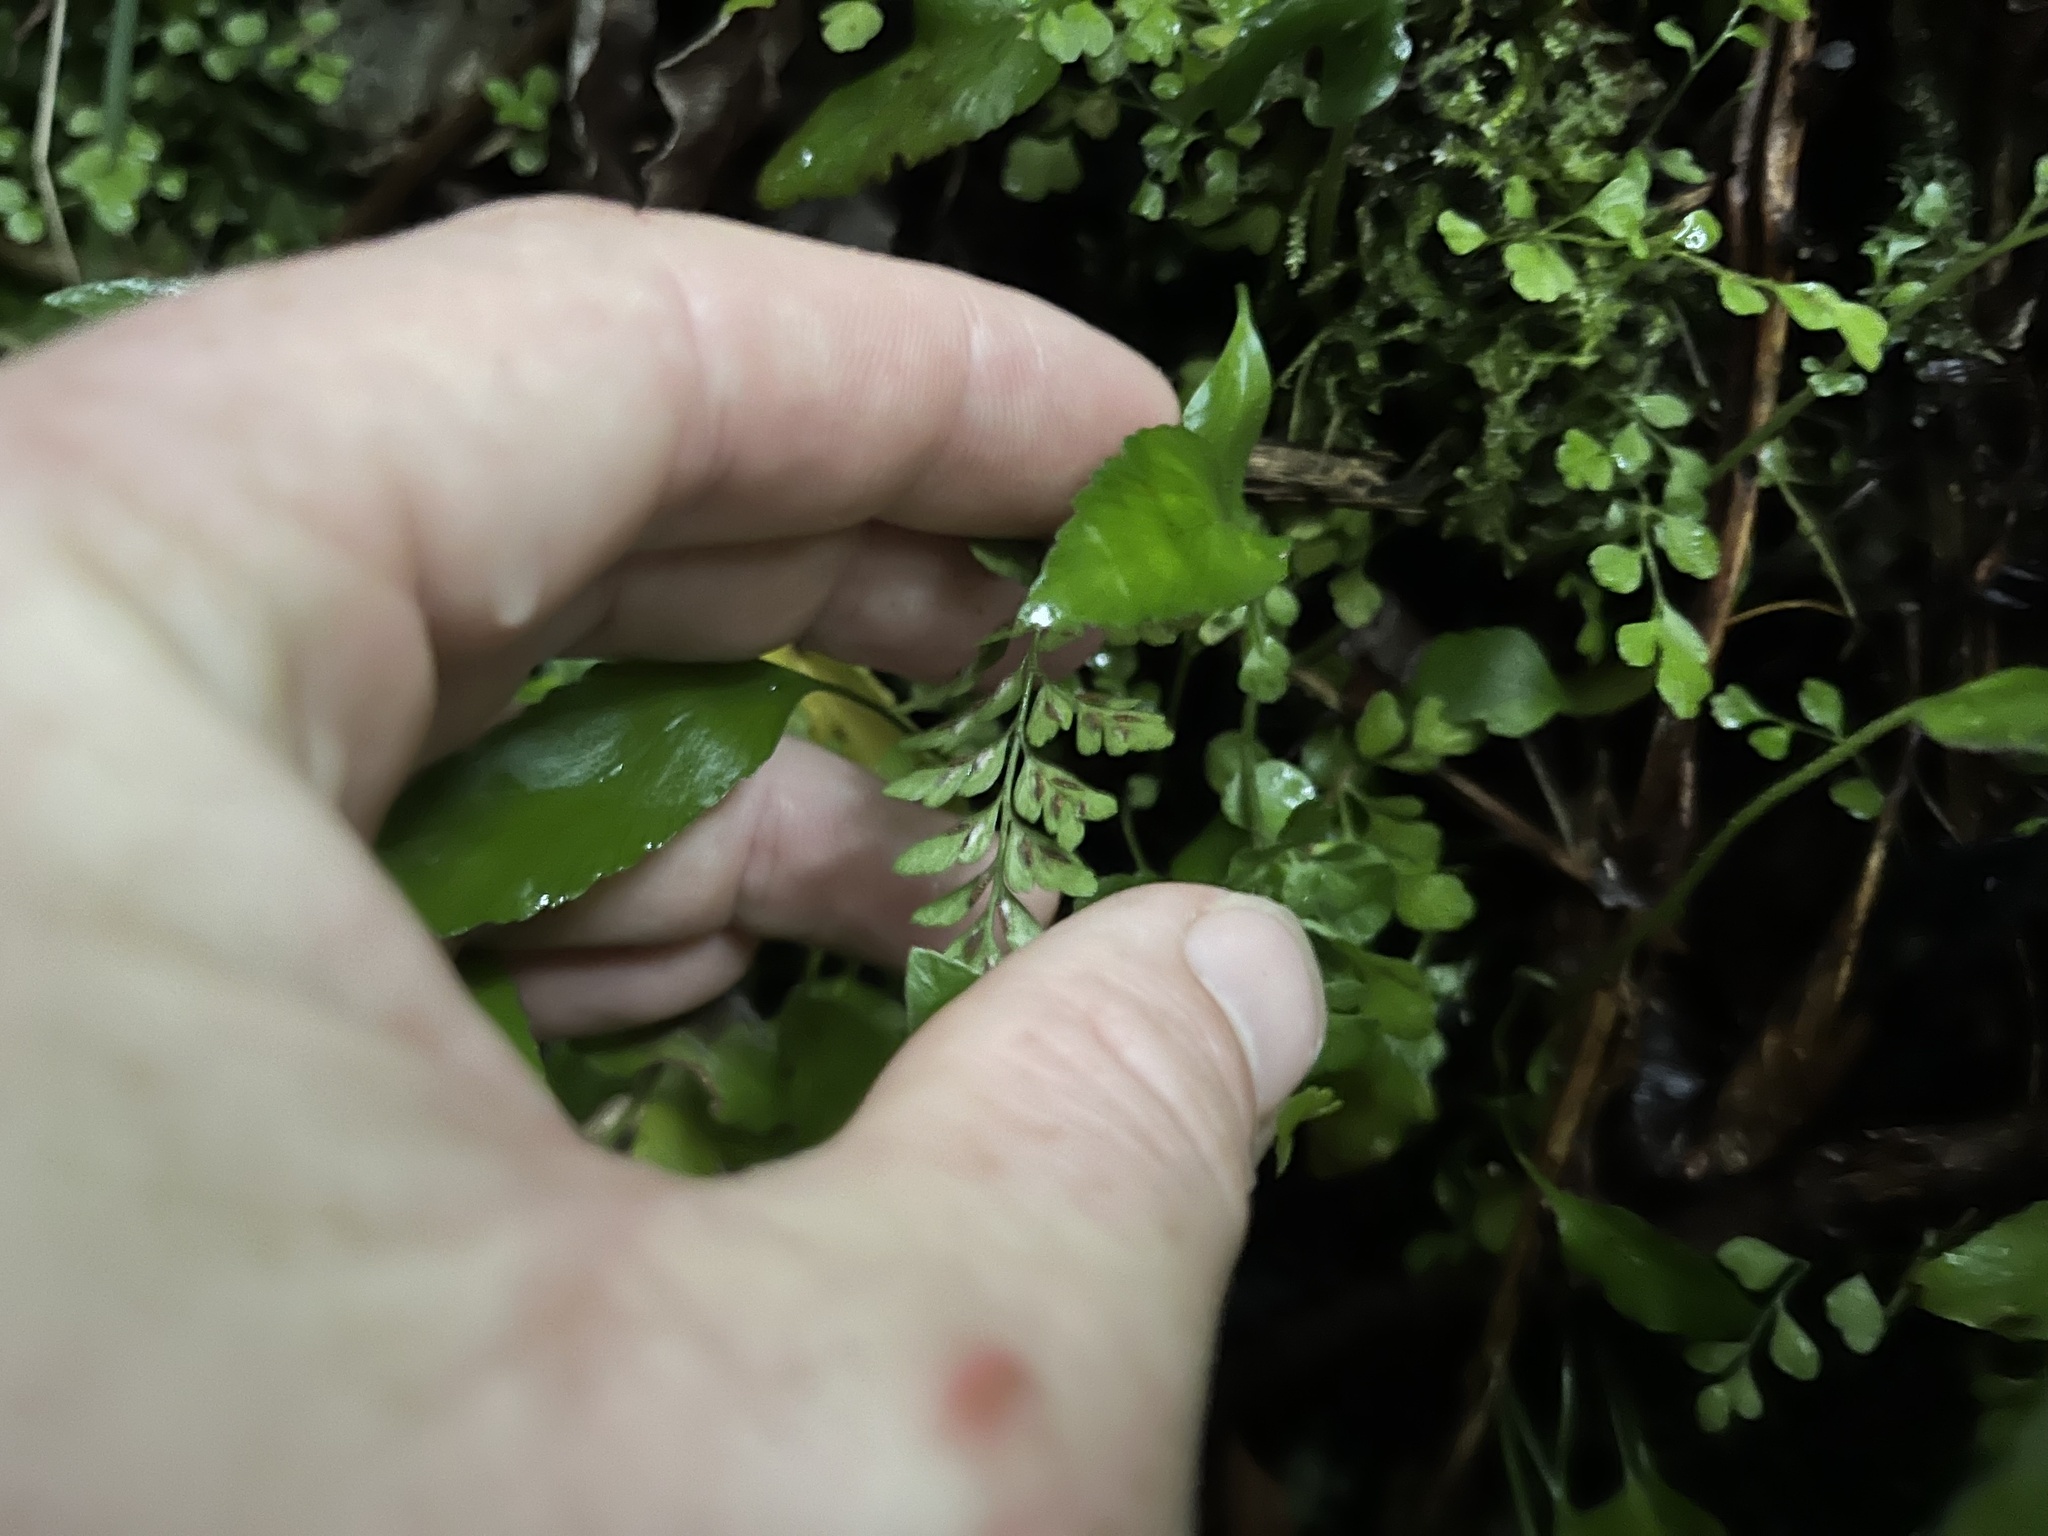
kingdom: Plantae
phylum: Tracheophyta
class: Polypodiopsida
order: Polypodiales
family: Aspleniaceae
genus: Asplenium
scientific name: Asplenium hookerianum
